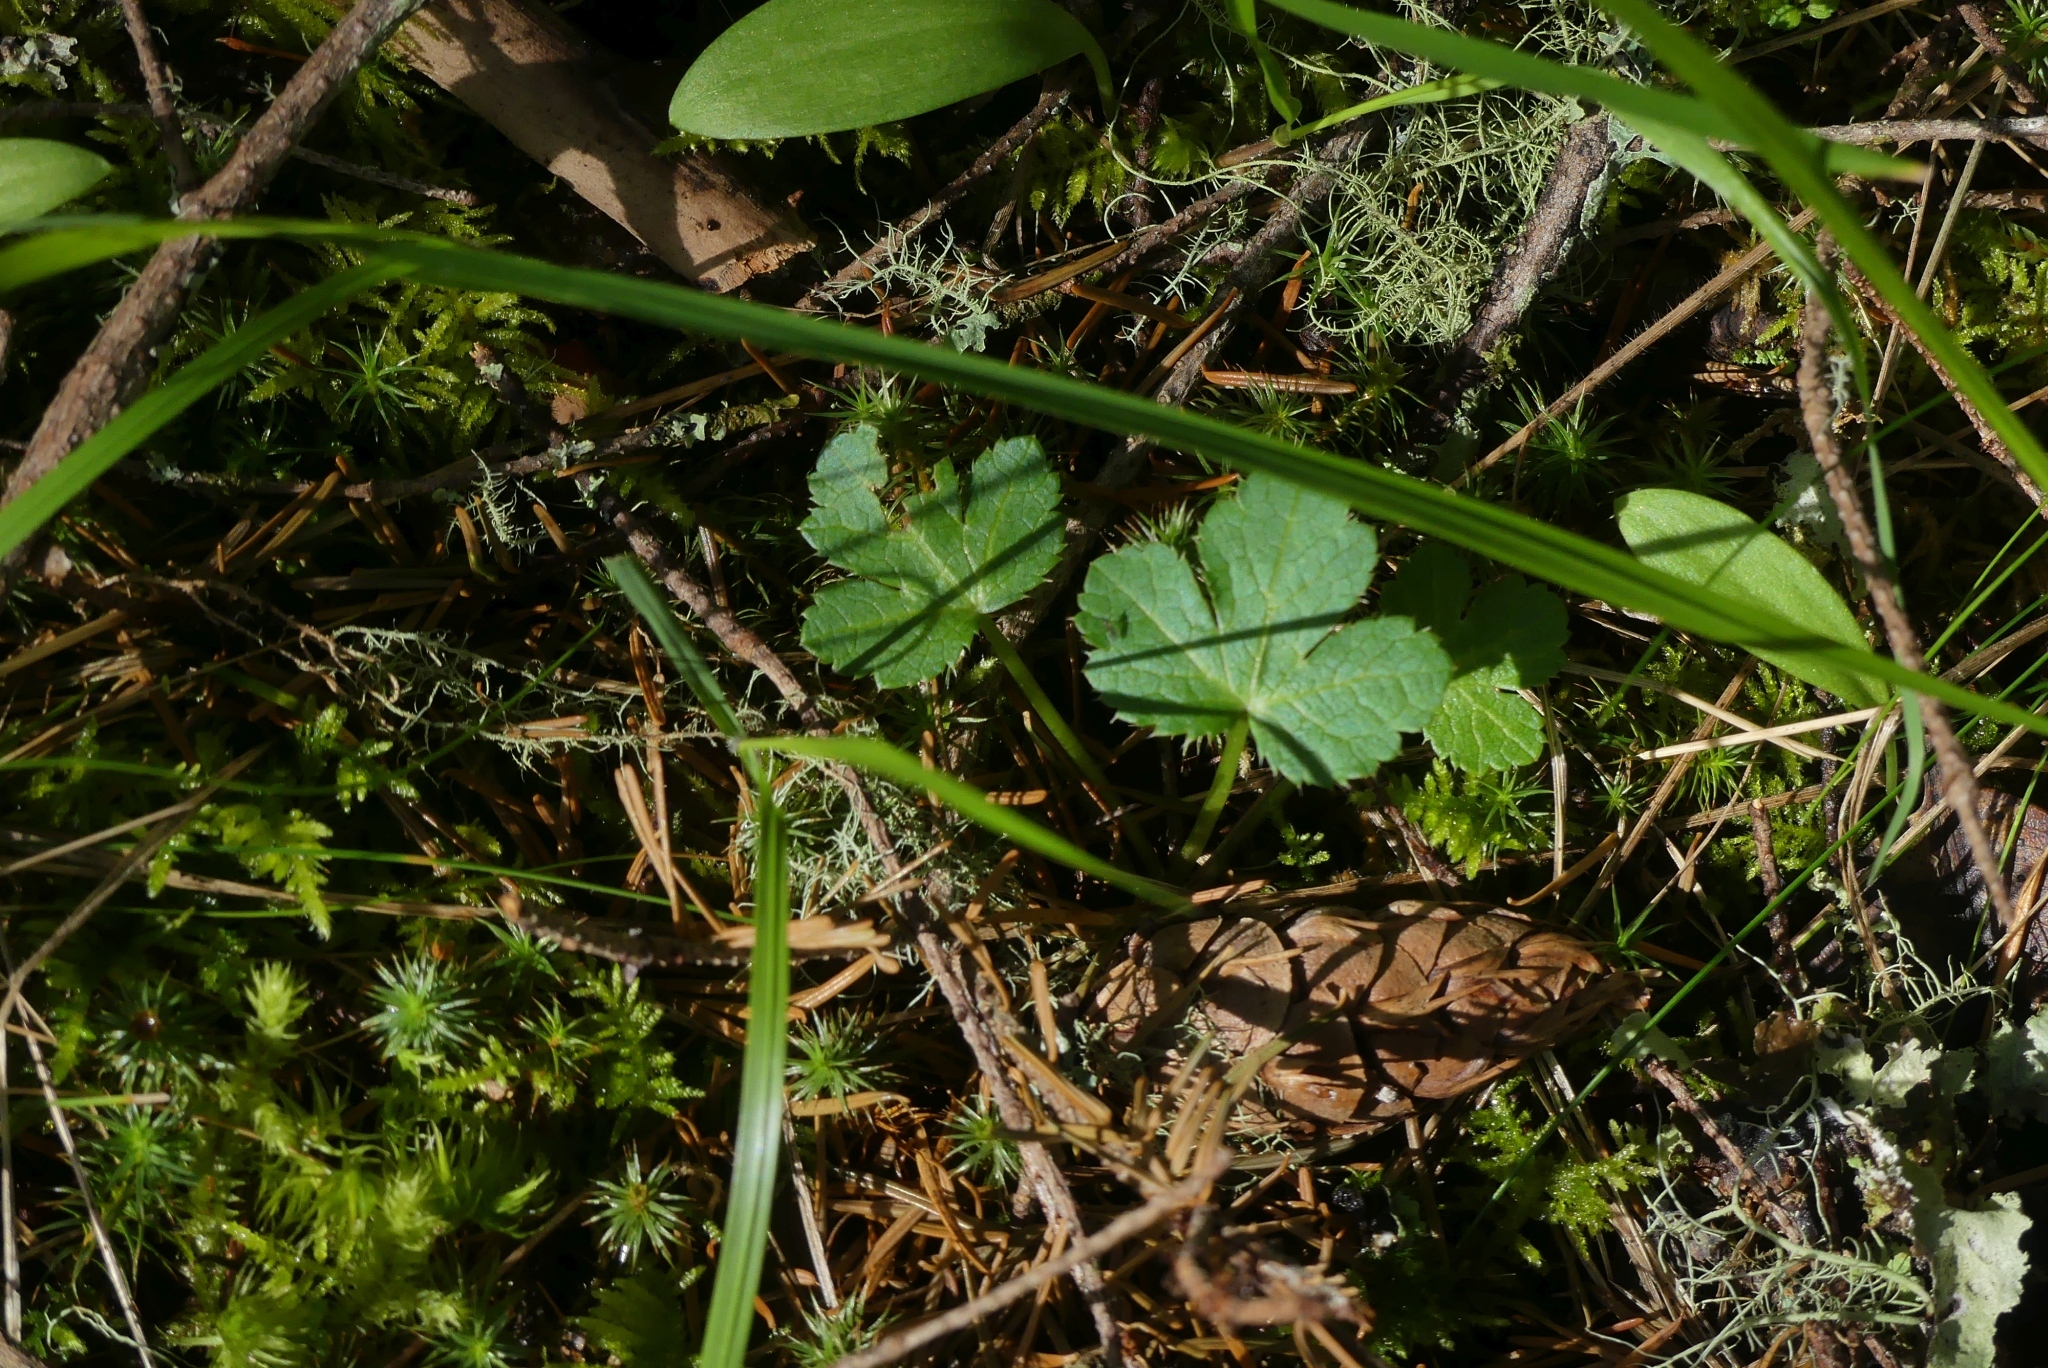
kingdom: Plantae
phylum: Tracheophyta
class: Magnoliopsida
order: Apiales
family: Apiaceae
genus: Sanicula
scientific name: Sanicula crassicaulis
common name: Western snakeroot
